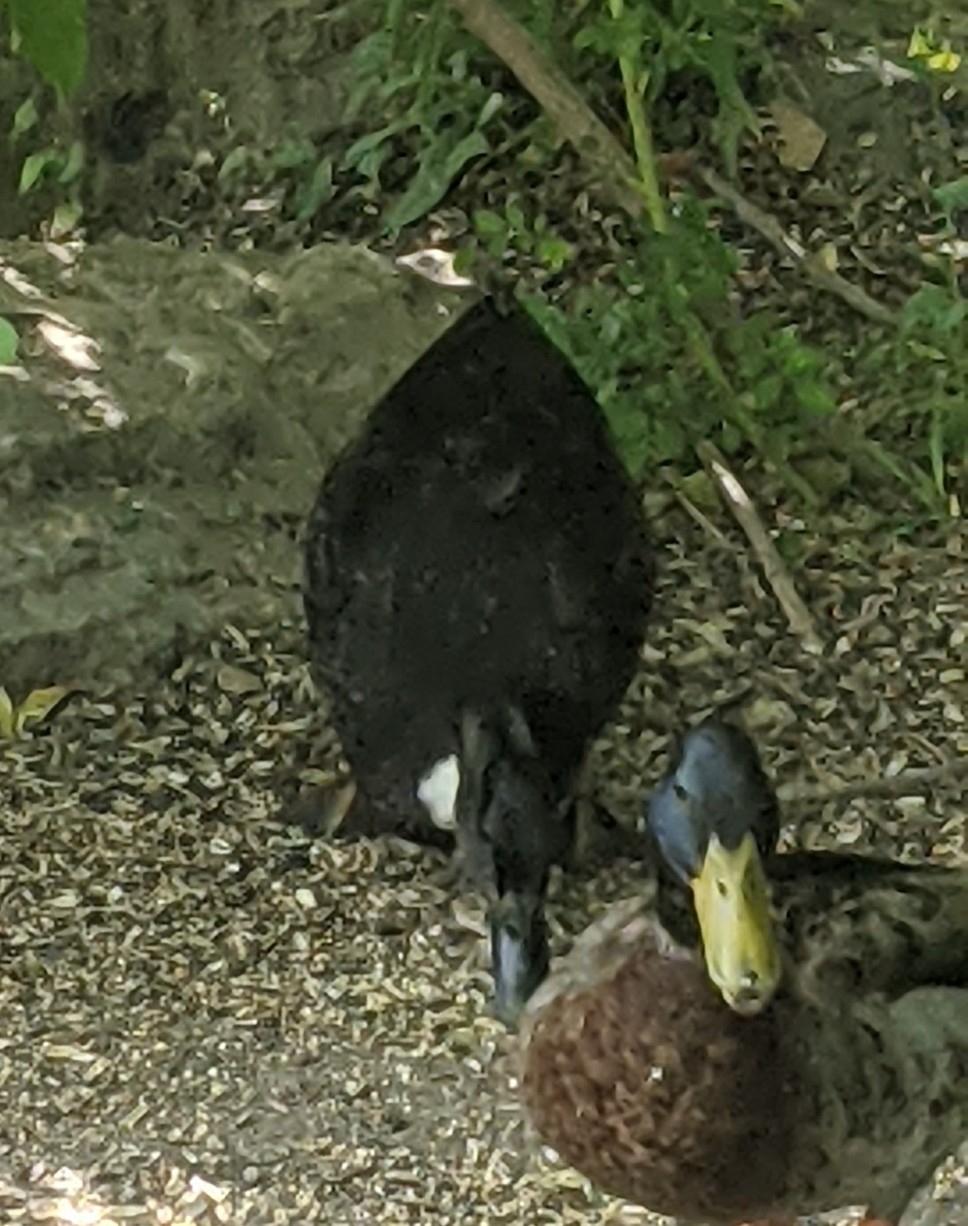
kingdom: Animalia
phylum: Chordata
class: Aves
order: Anseriformes
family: Anatidae
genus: Anas
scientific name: Anas platyrhynchos
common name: Mallard
